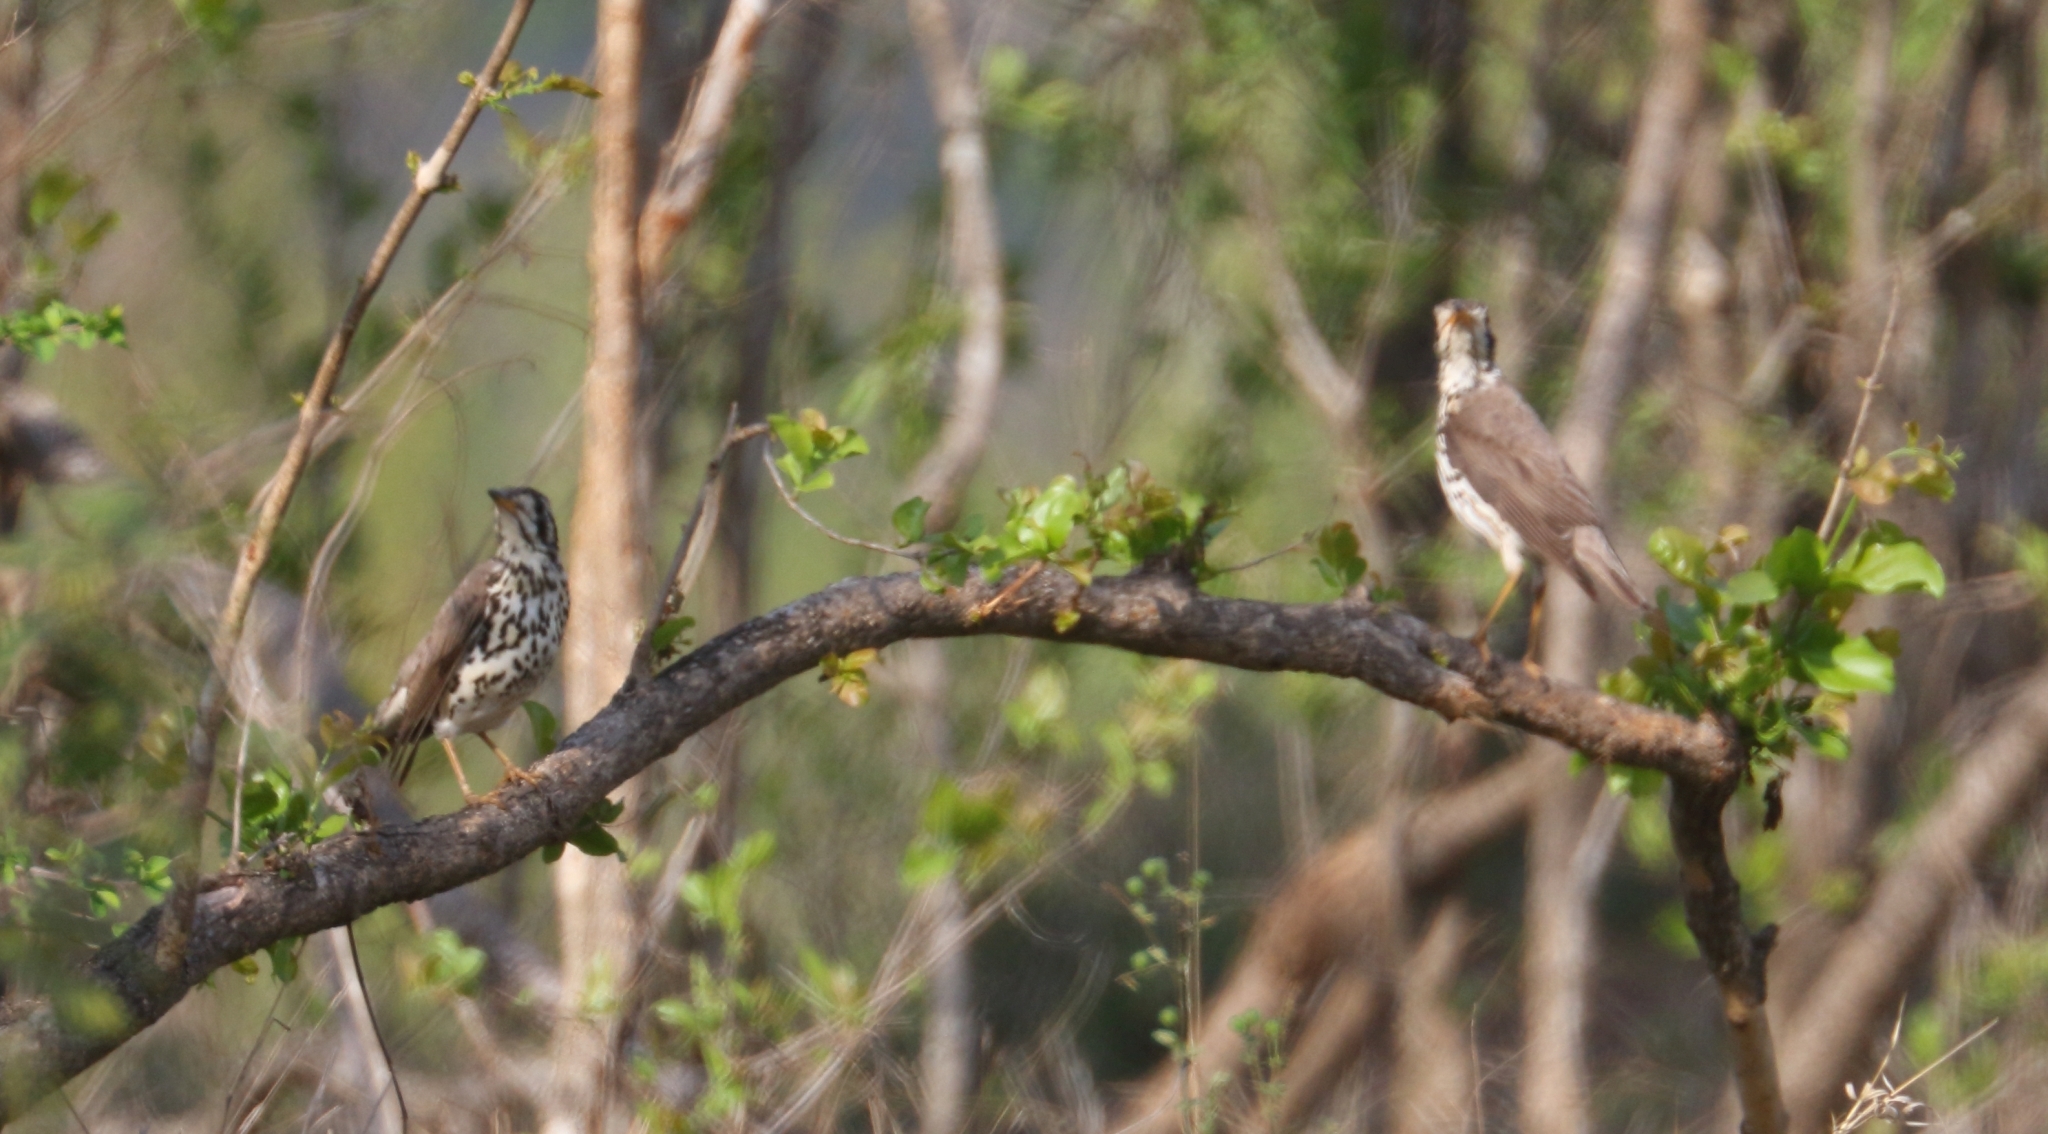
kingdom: Animalia
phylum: Chordata
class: Aves
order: Passeriformes
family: Turdidae
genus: Psophocichla
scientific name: Psophocichla litsitsirupa
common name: Groundscraper thrush
